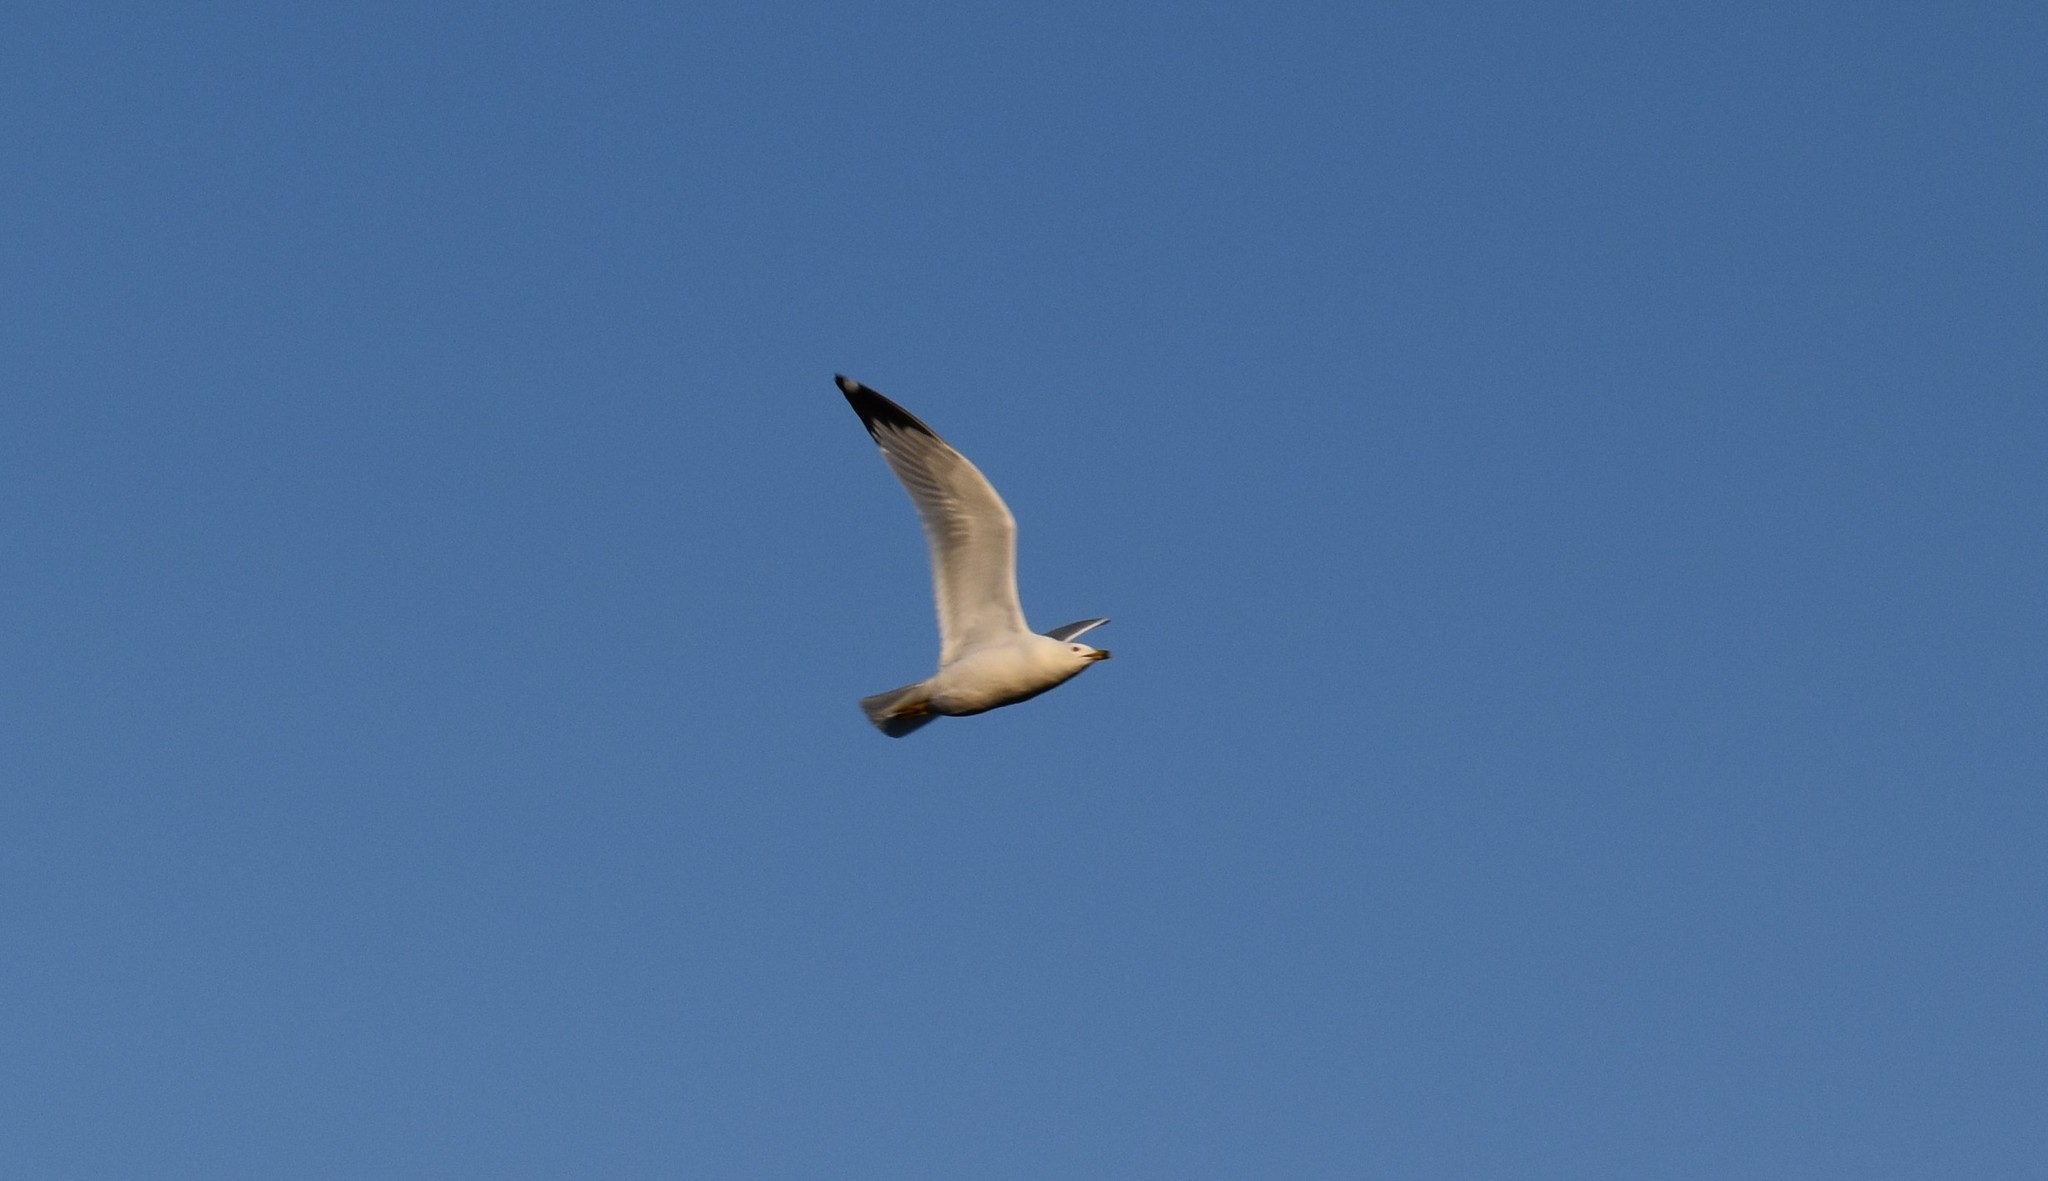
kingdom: Animalia
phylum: Chordata
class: Aves
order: Charadriiformes
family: Laridae
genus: Larus
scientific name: Larus delawarensis
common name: Ring-billed gull
